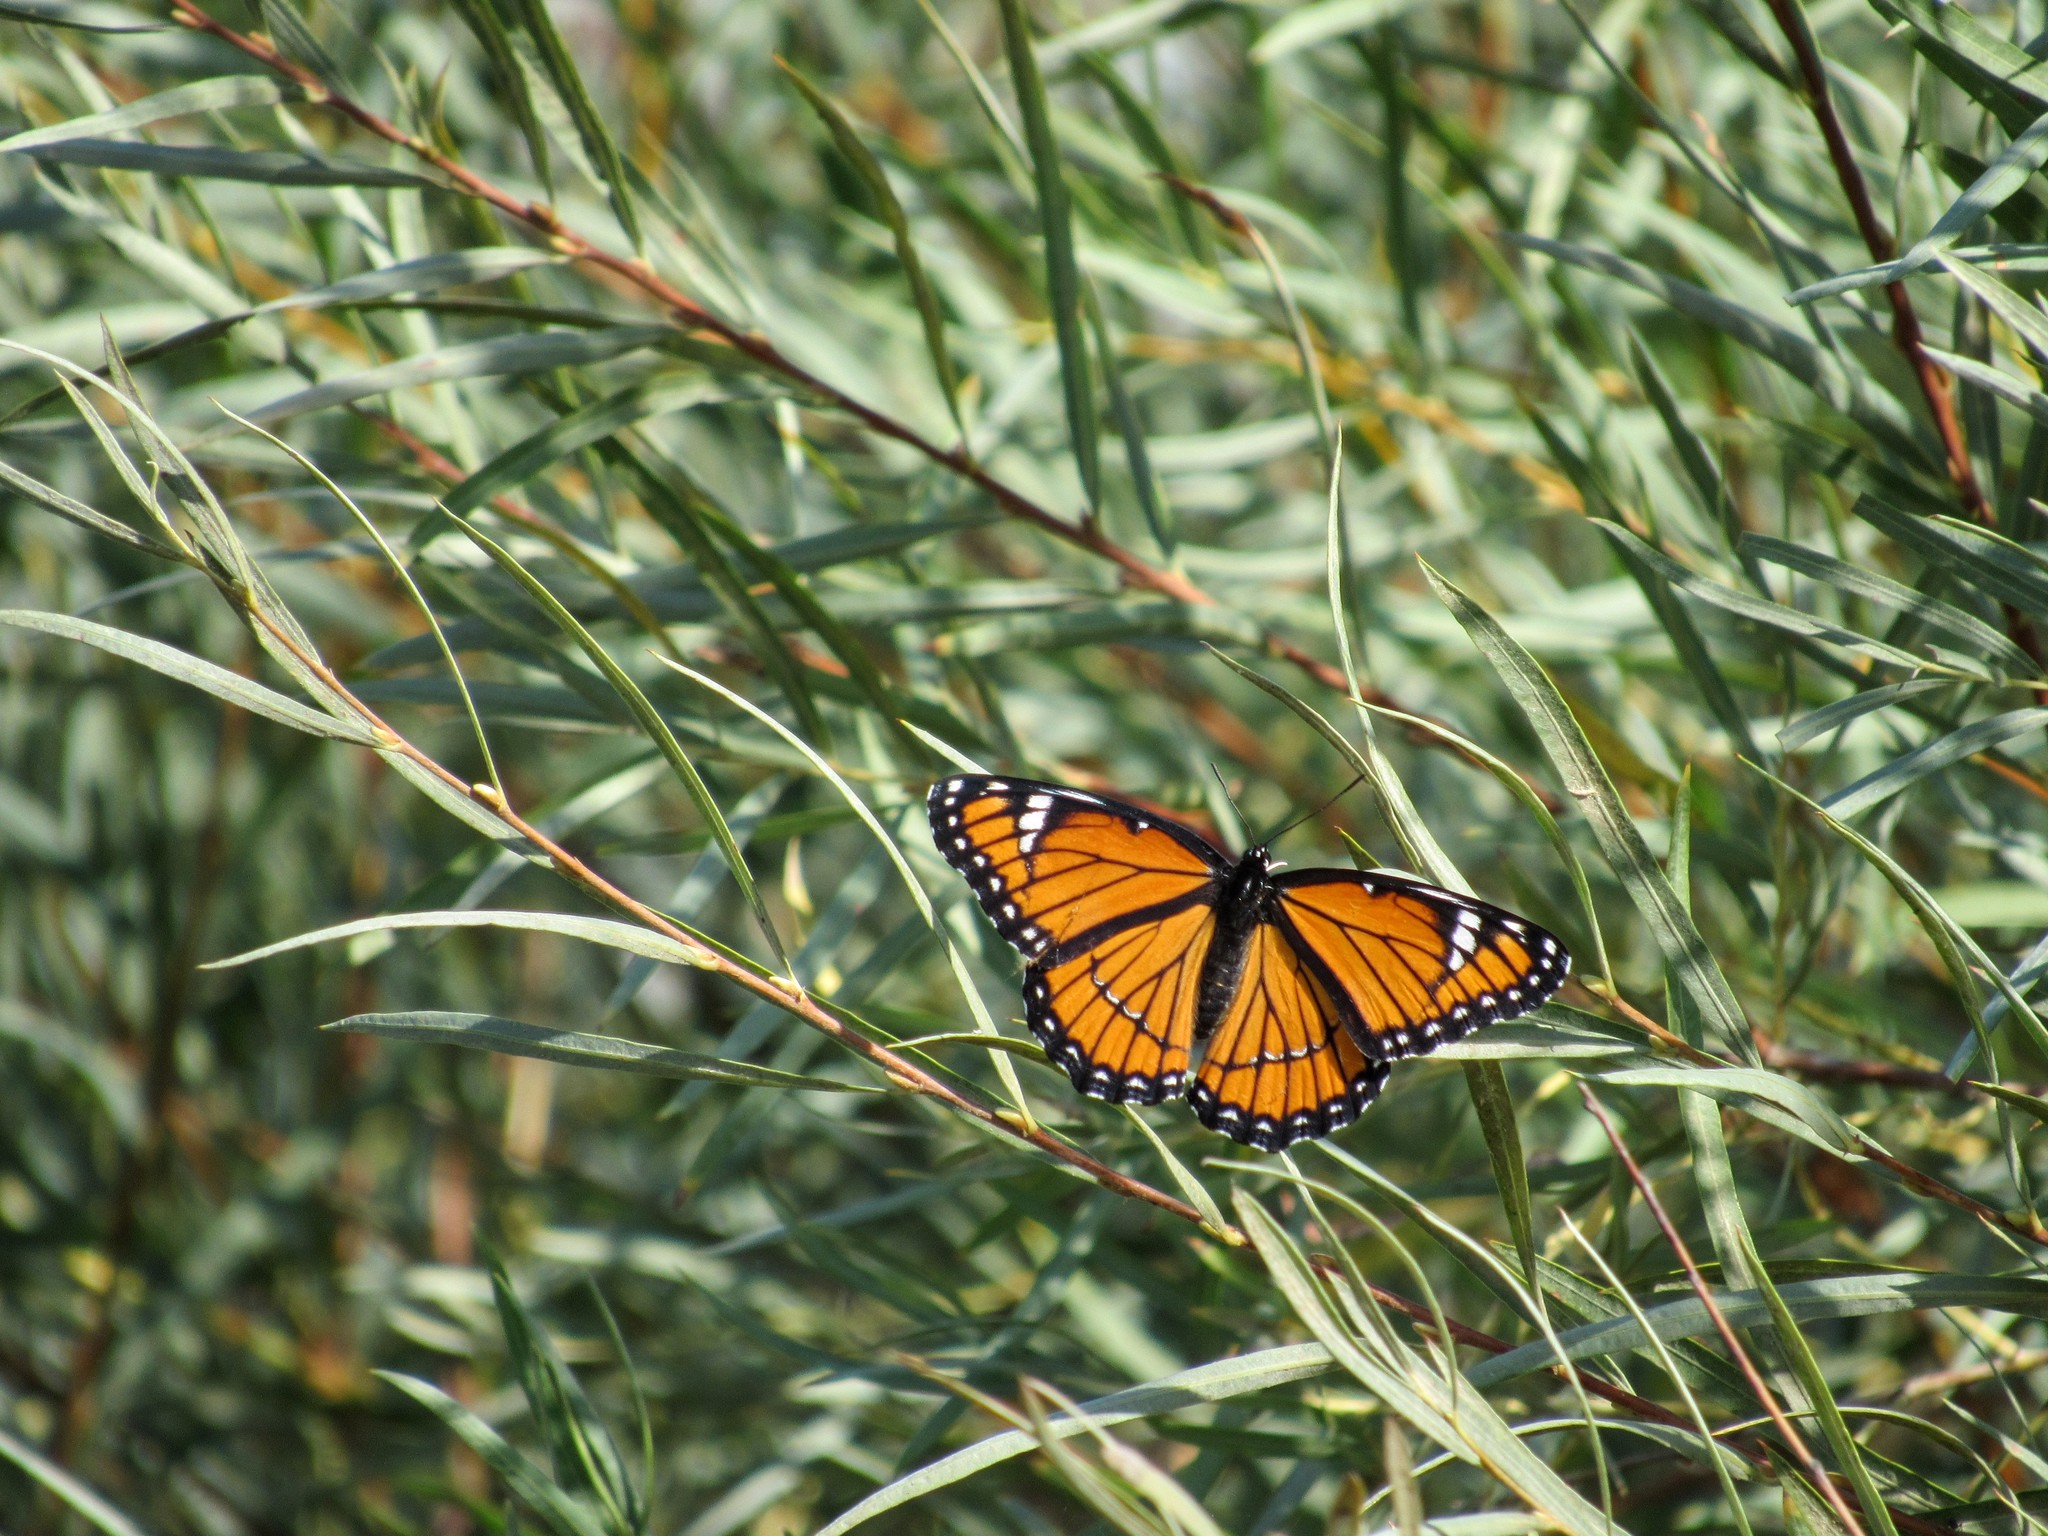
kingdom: Animalia
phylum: Arthropoda
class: Insecta
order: Lepidoptera
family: Nymphalidae
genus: Limenitis
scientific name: Limenitis archippus
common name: Viceroy
